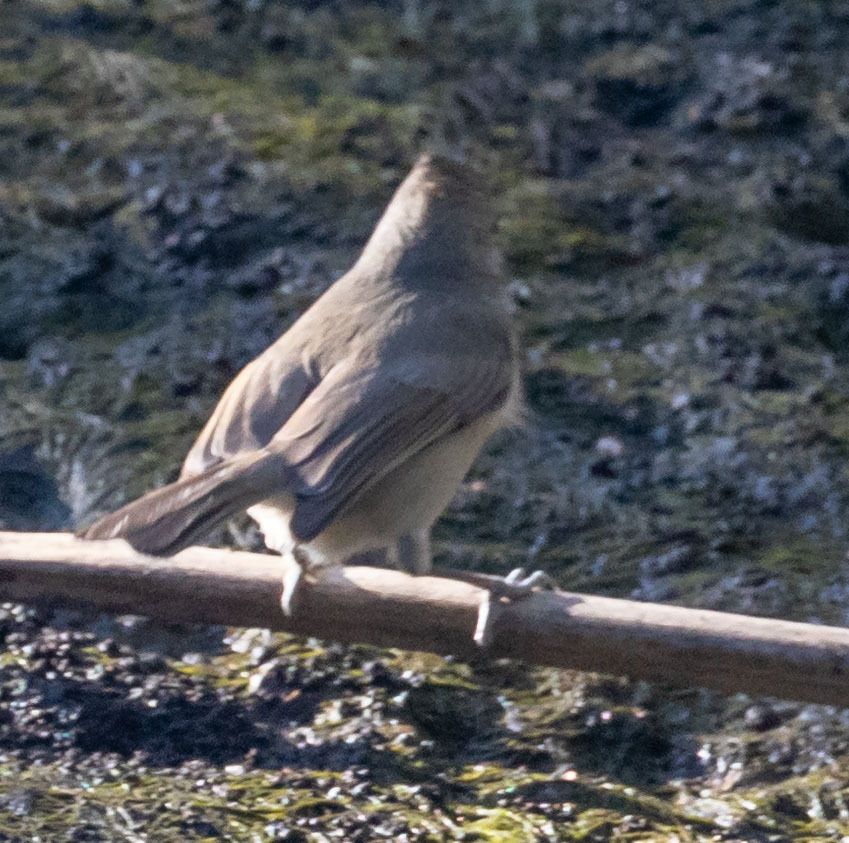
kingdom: Animalia
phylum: Chordata
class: Aves
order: Passeriformes
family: Paridae
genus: Baeolophus
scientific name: Baeolophus inornatus
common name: Oak titmouse
